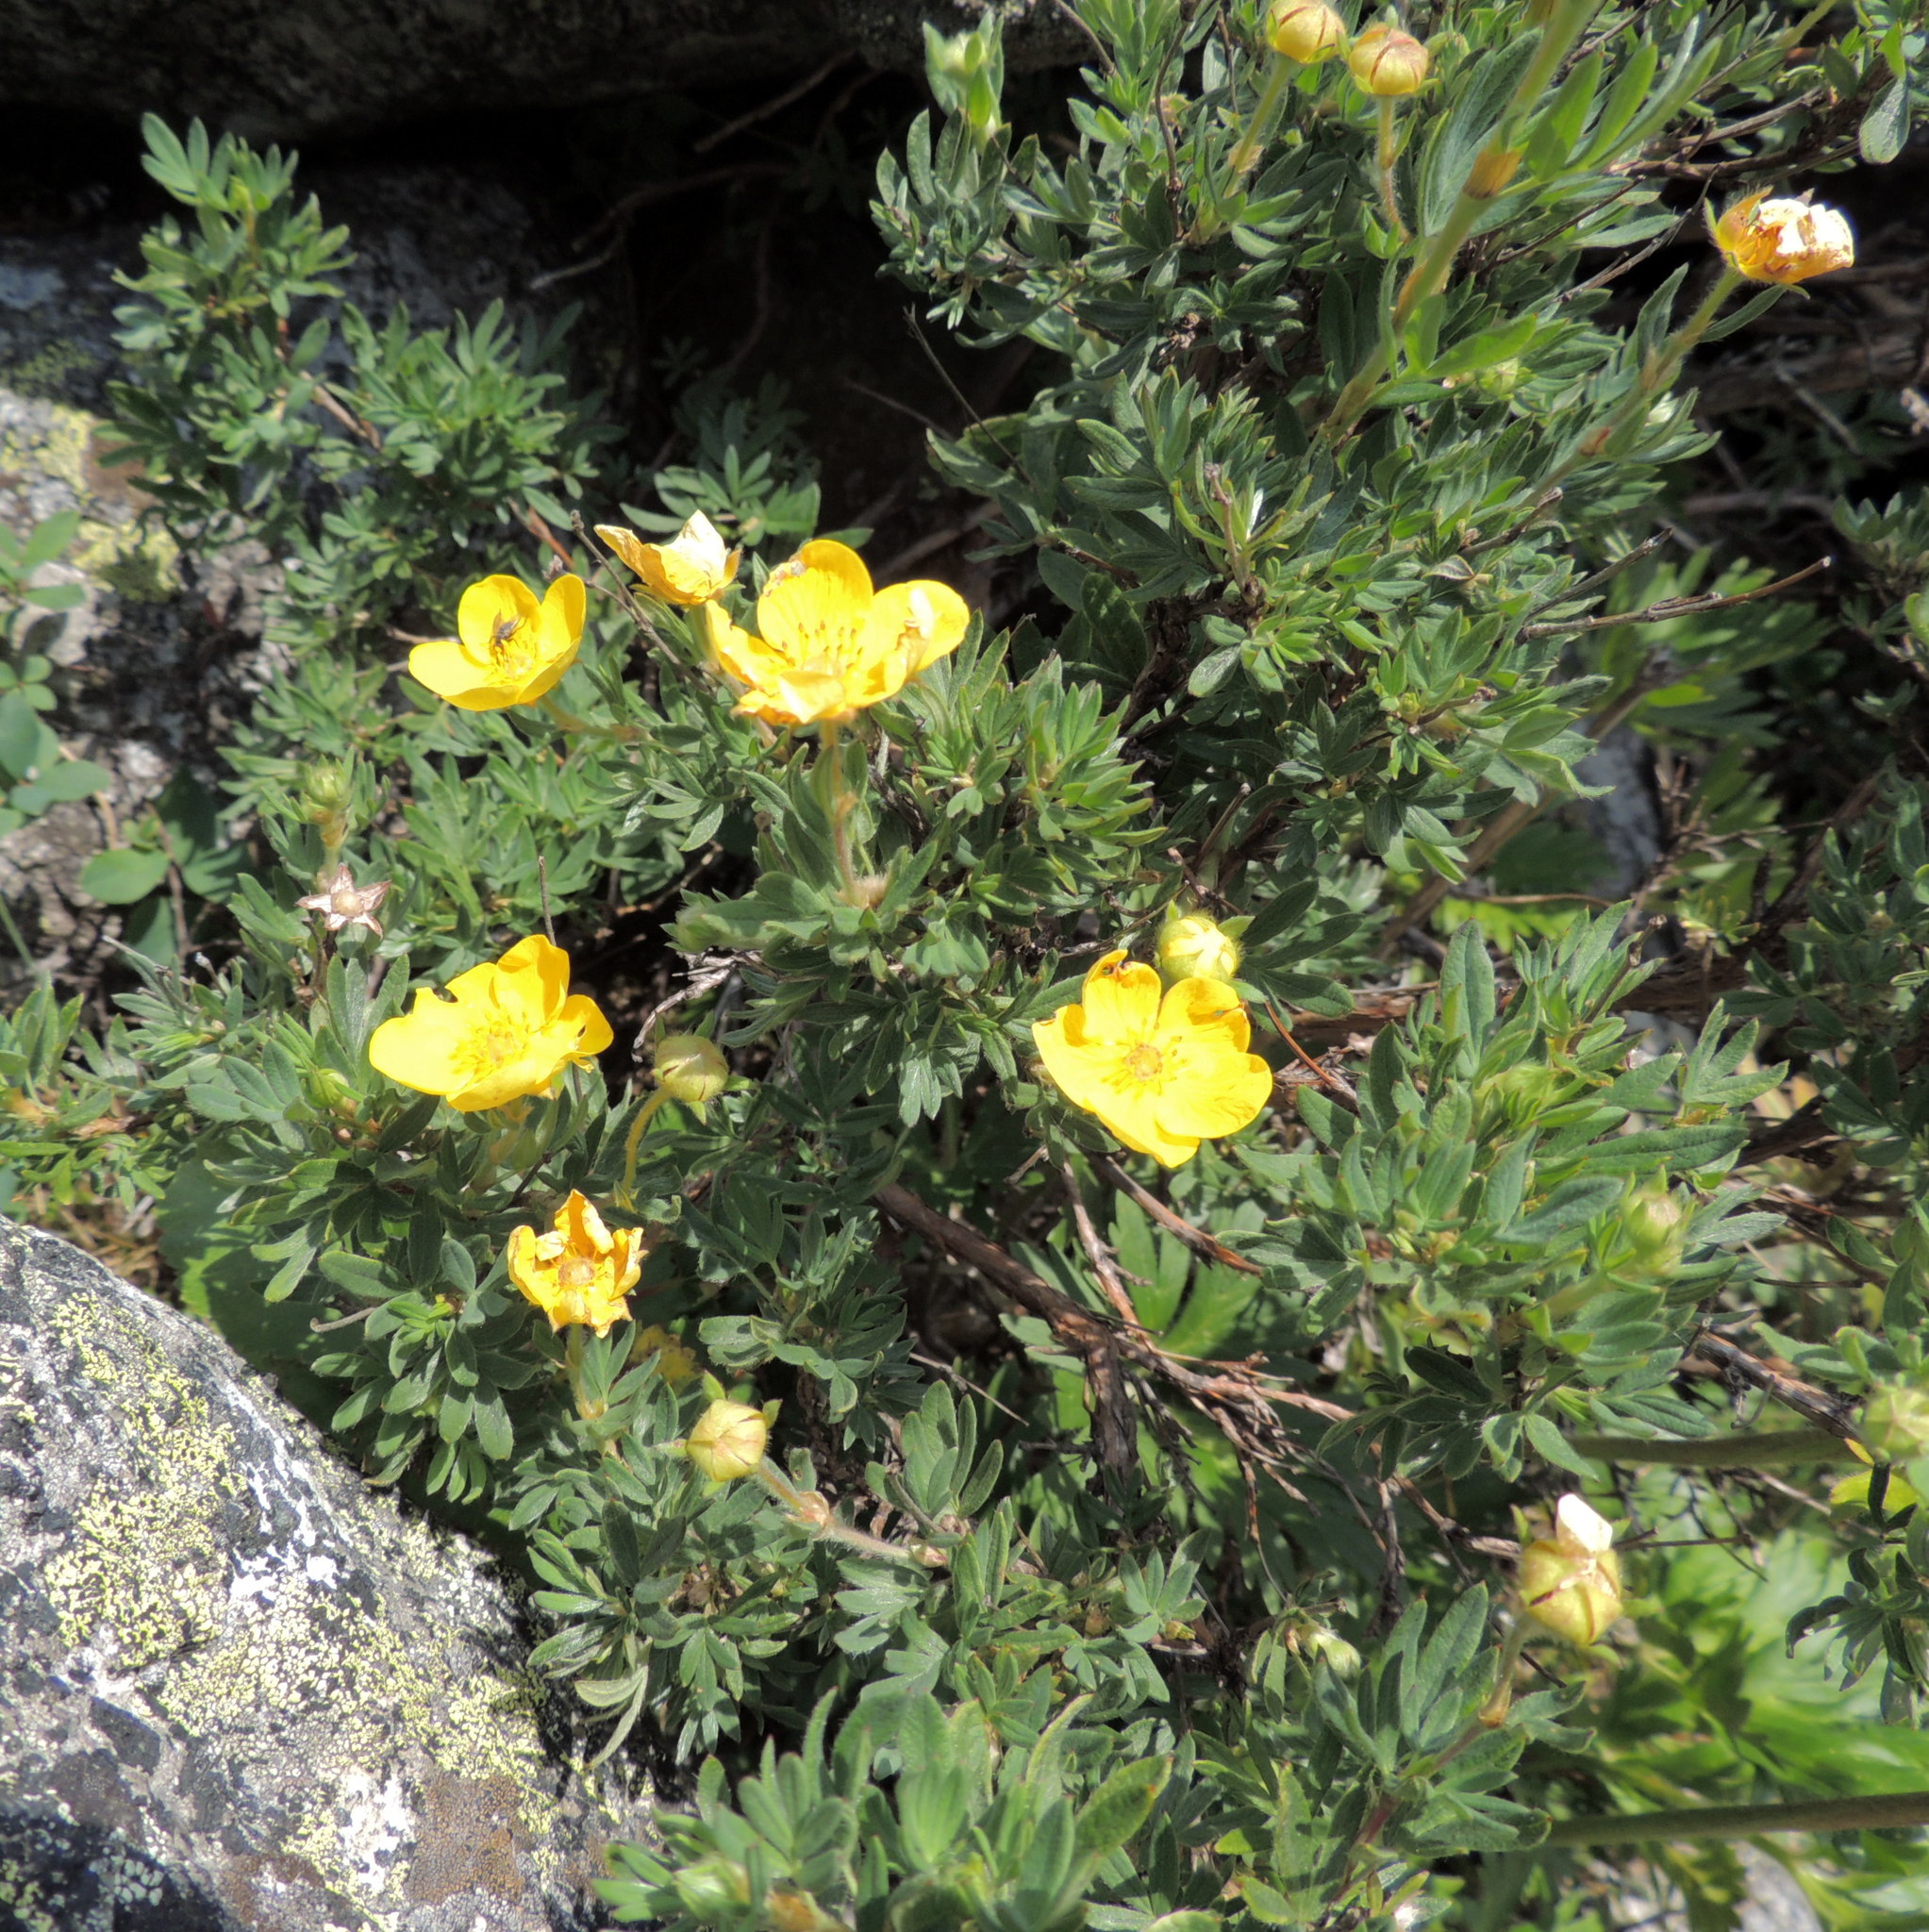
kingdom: Plantae
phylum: Tracheophyta
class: Magnoliopsida
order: Rosales
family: Rosaceae
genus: Dasiphora
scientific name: Dasiphora fruticosa
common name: Shrubby cinquefoil
